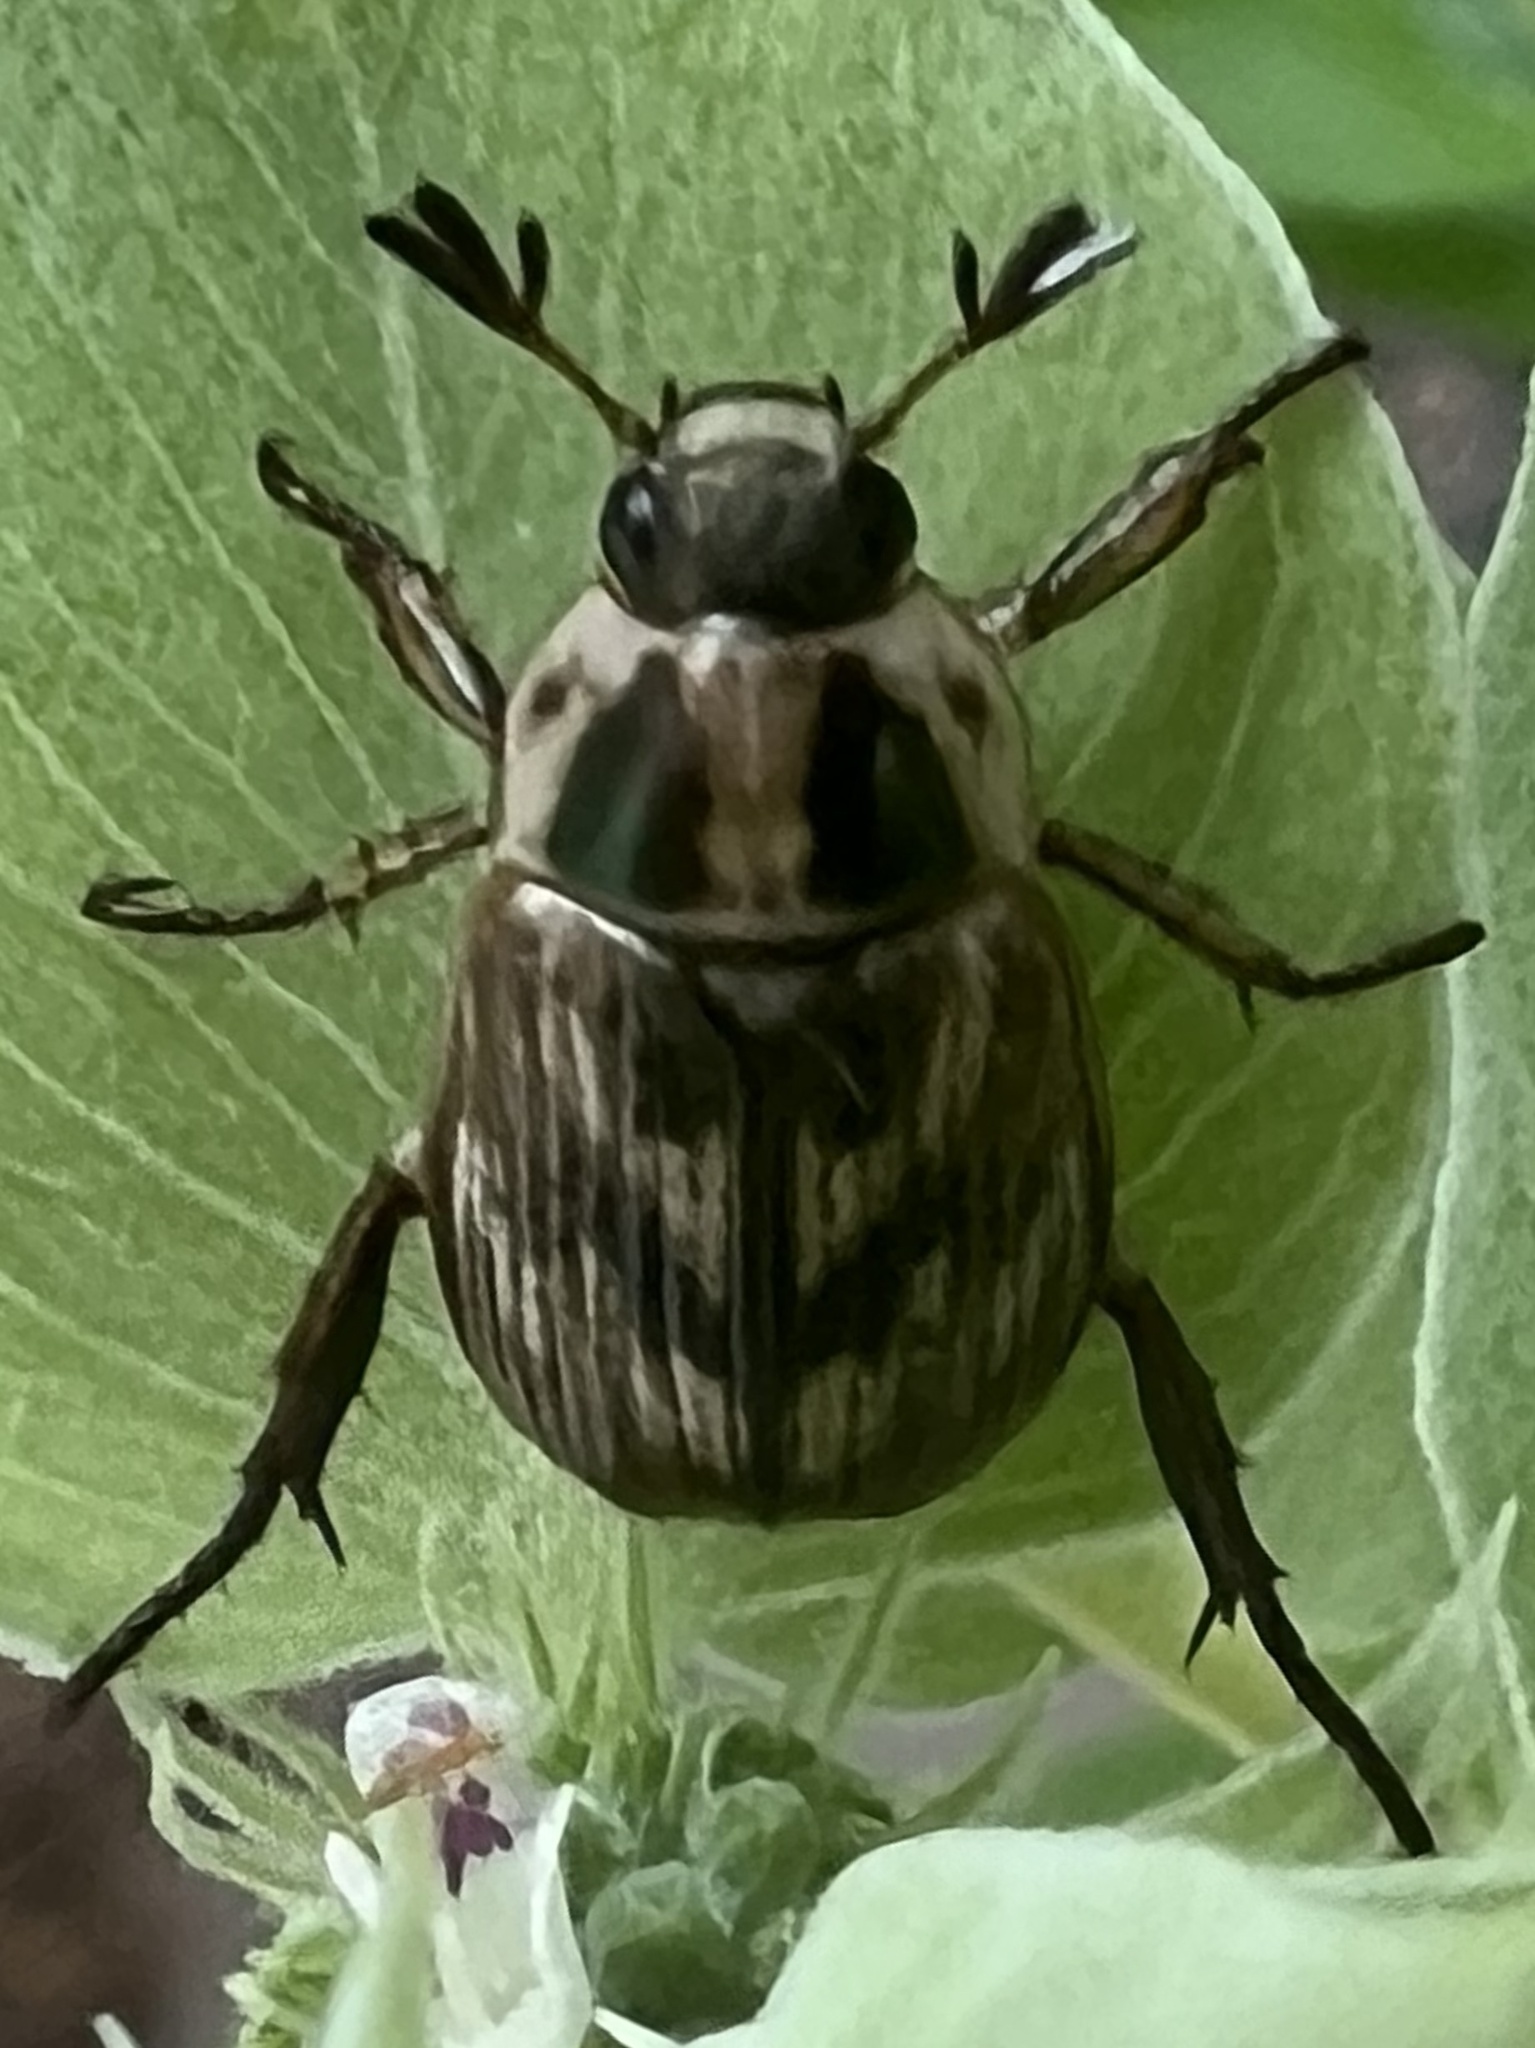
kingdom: Animalia
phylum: Arthropoda
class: Insecta
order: Coleoptera
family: Scarabaeidae
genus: Exomala
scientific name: Exomala orientalis
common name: Oriental beetle
